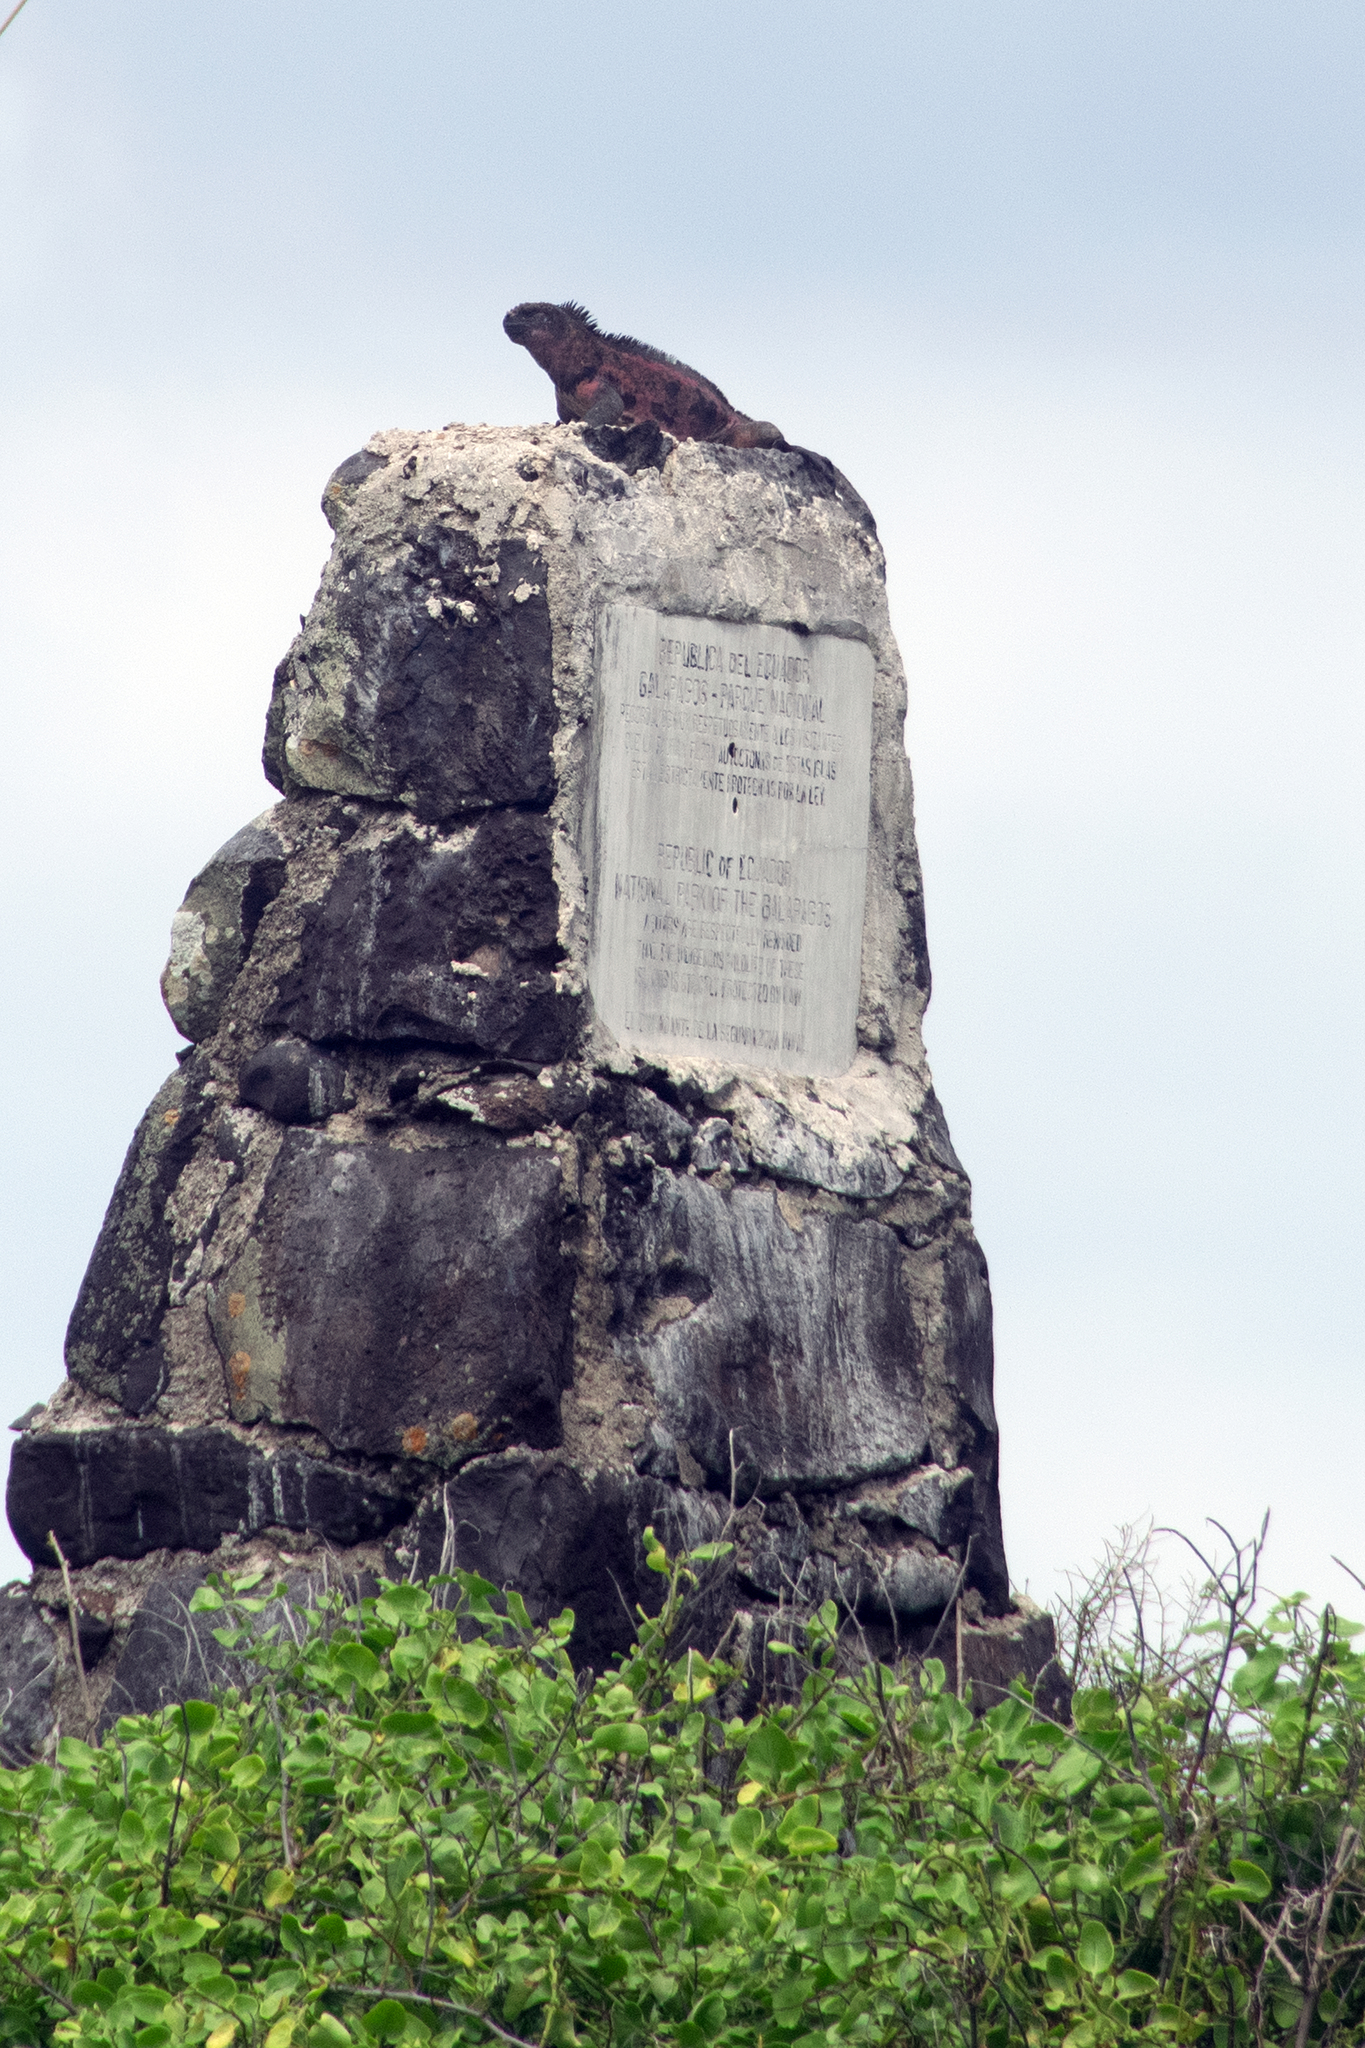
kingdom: Animalia
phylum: Chordata
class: Squamata
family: Iguanidae
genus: Amblyrhynchus
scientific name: Amblyrhynchus cristatus
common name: Marine iguana
